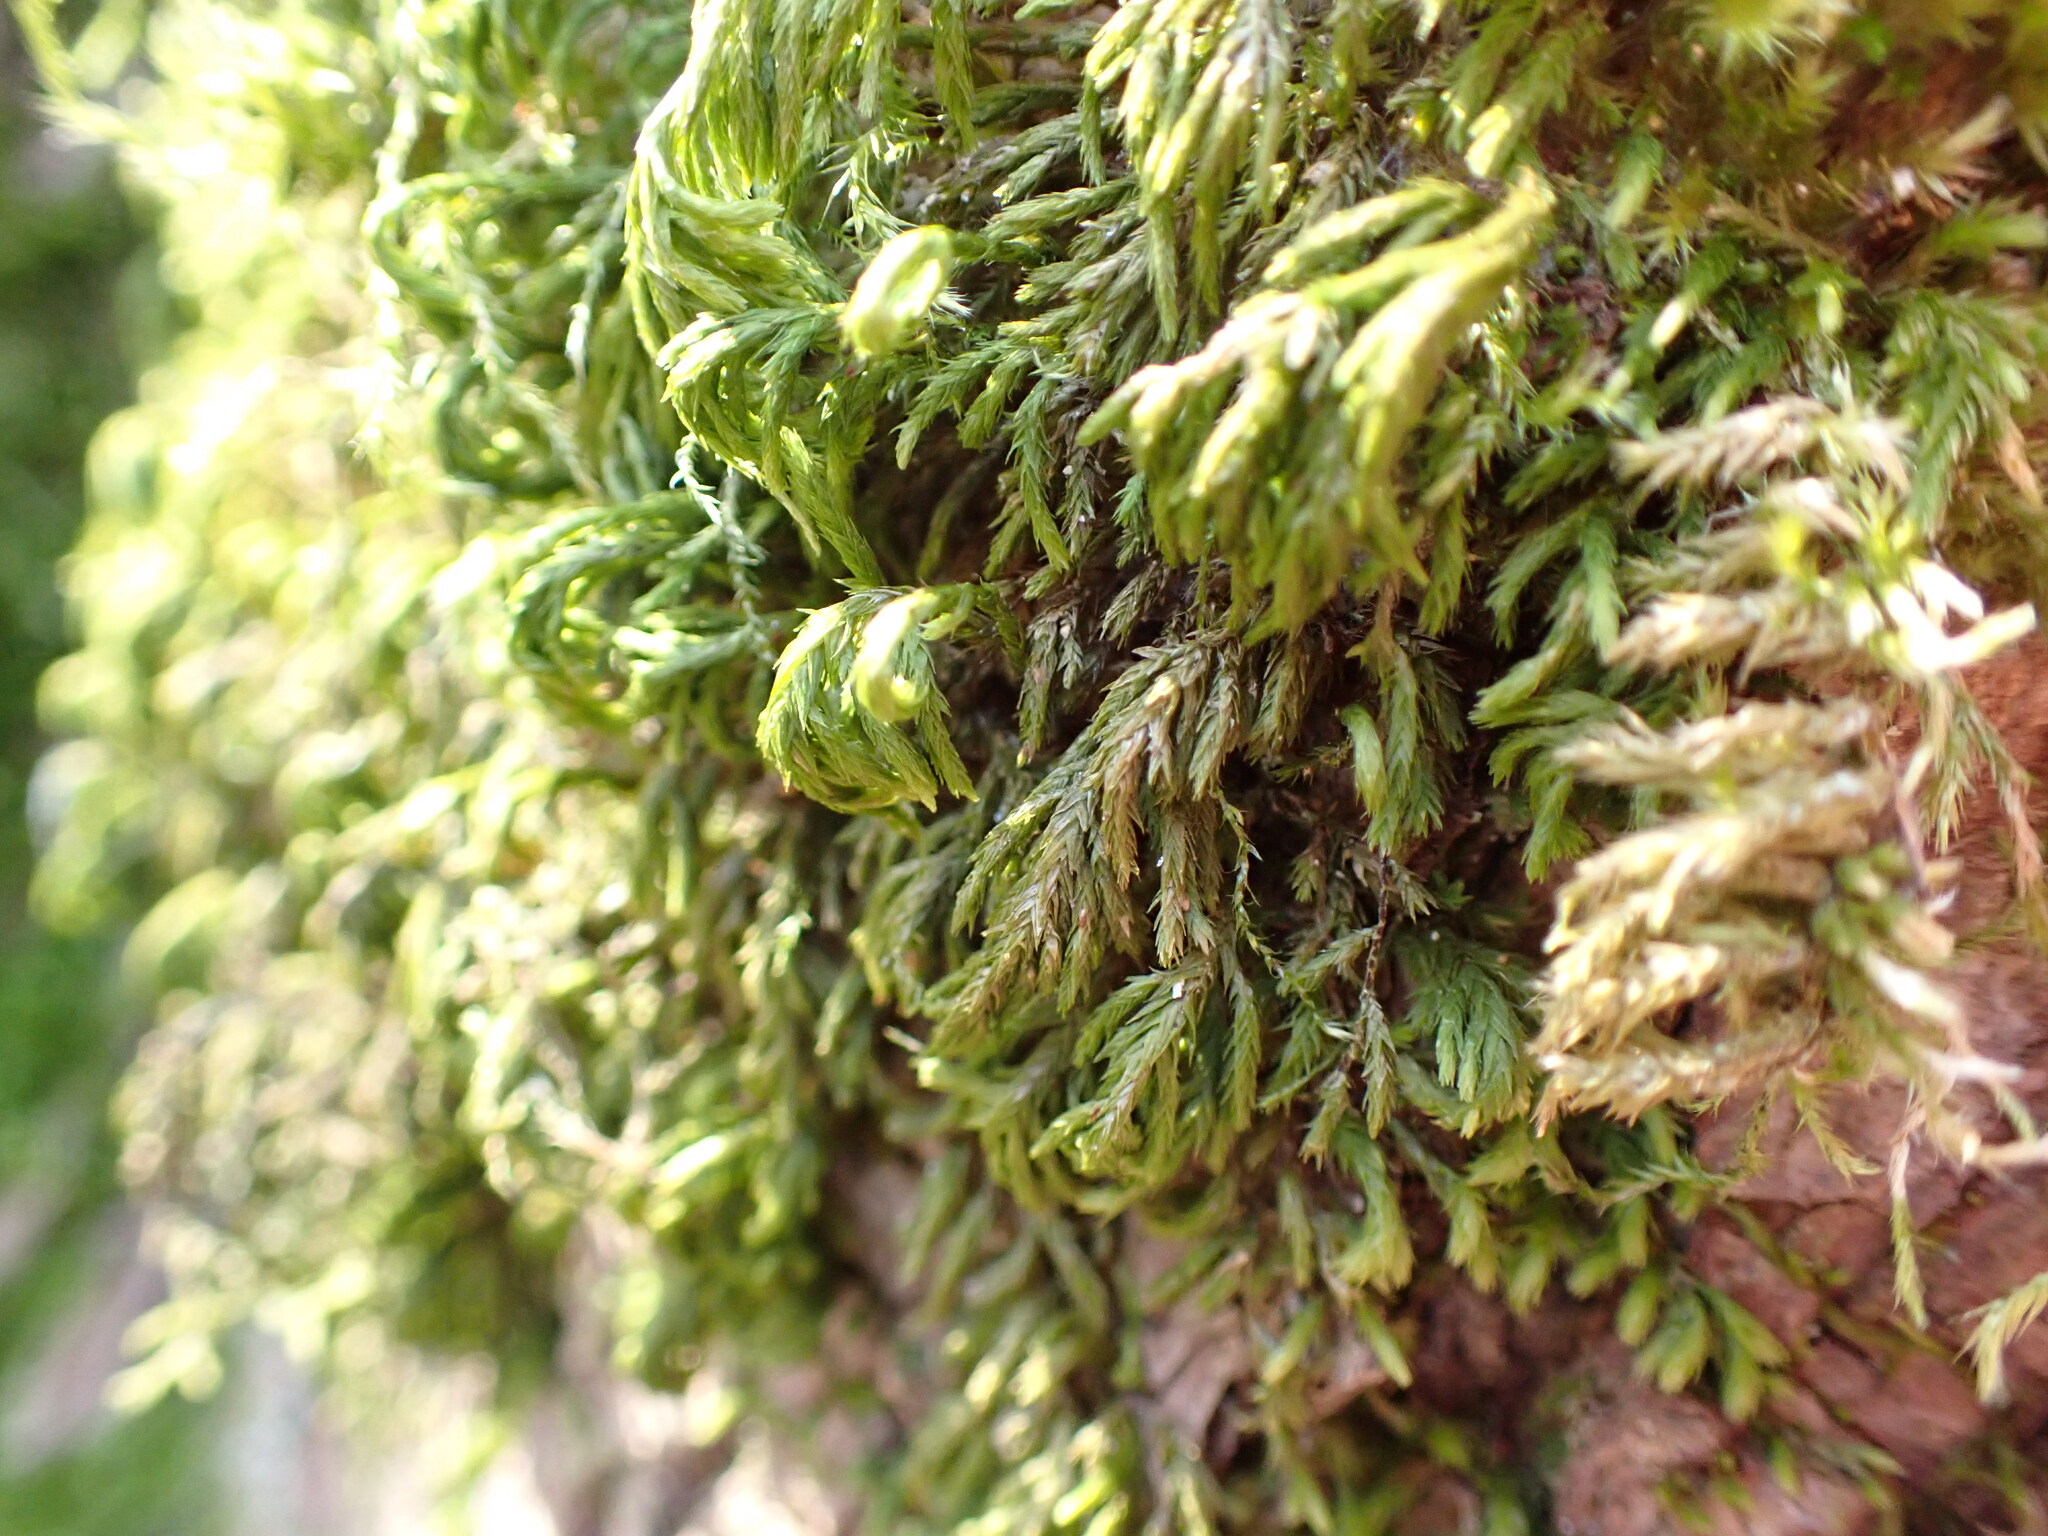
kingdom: Plantae
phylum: Bryophyta
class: Bryopsida
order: Hypnales
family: Cryphaeaceae
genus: Dendroalsia
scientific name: Dendroalsia abietina
